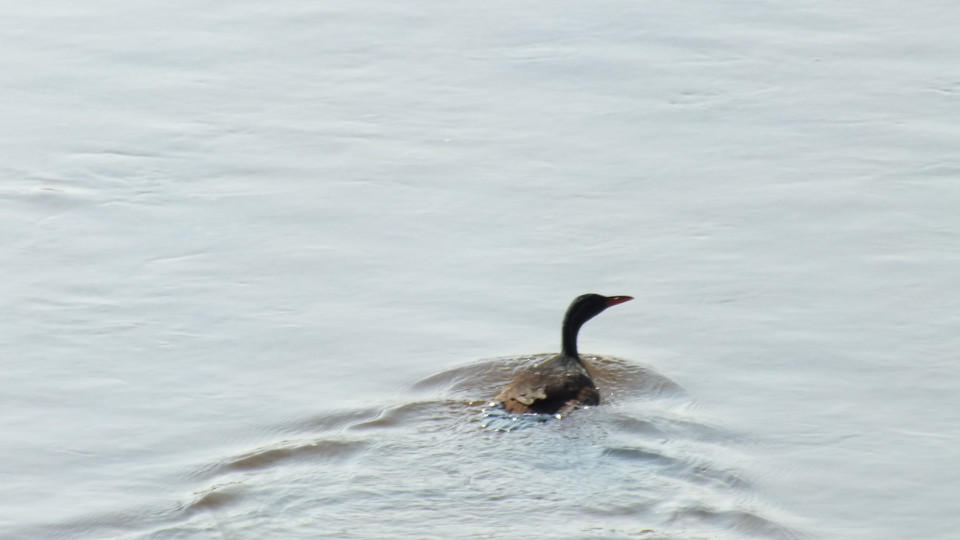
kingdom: Animalia
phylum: Chordata
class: Aves
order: Gruiformes
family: Heliornithidae
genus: Podica
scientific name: Podica senegalensis
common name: African finfoot
